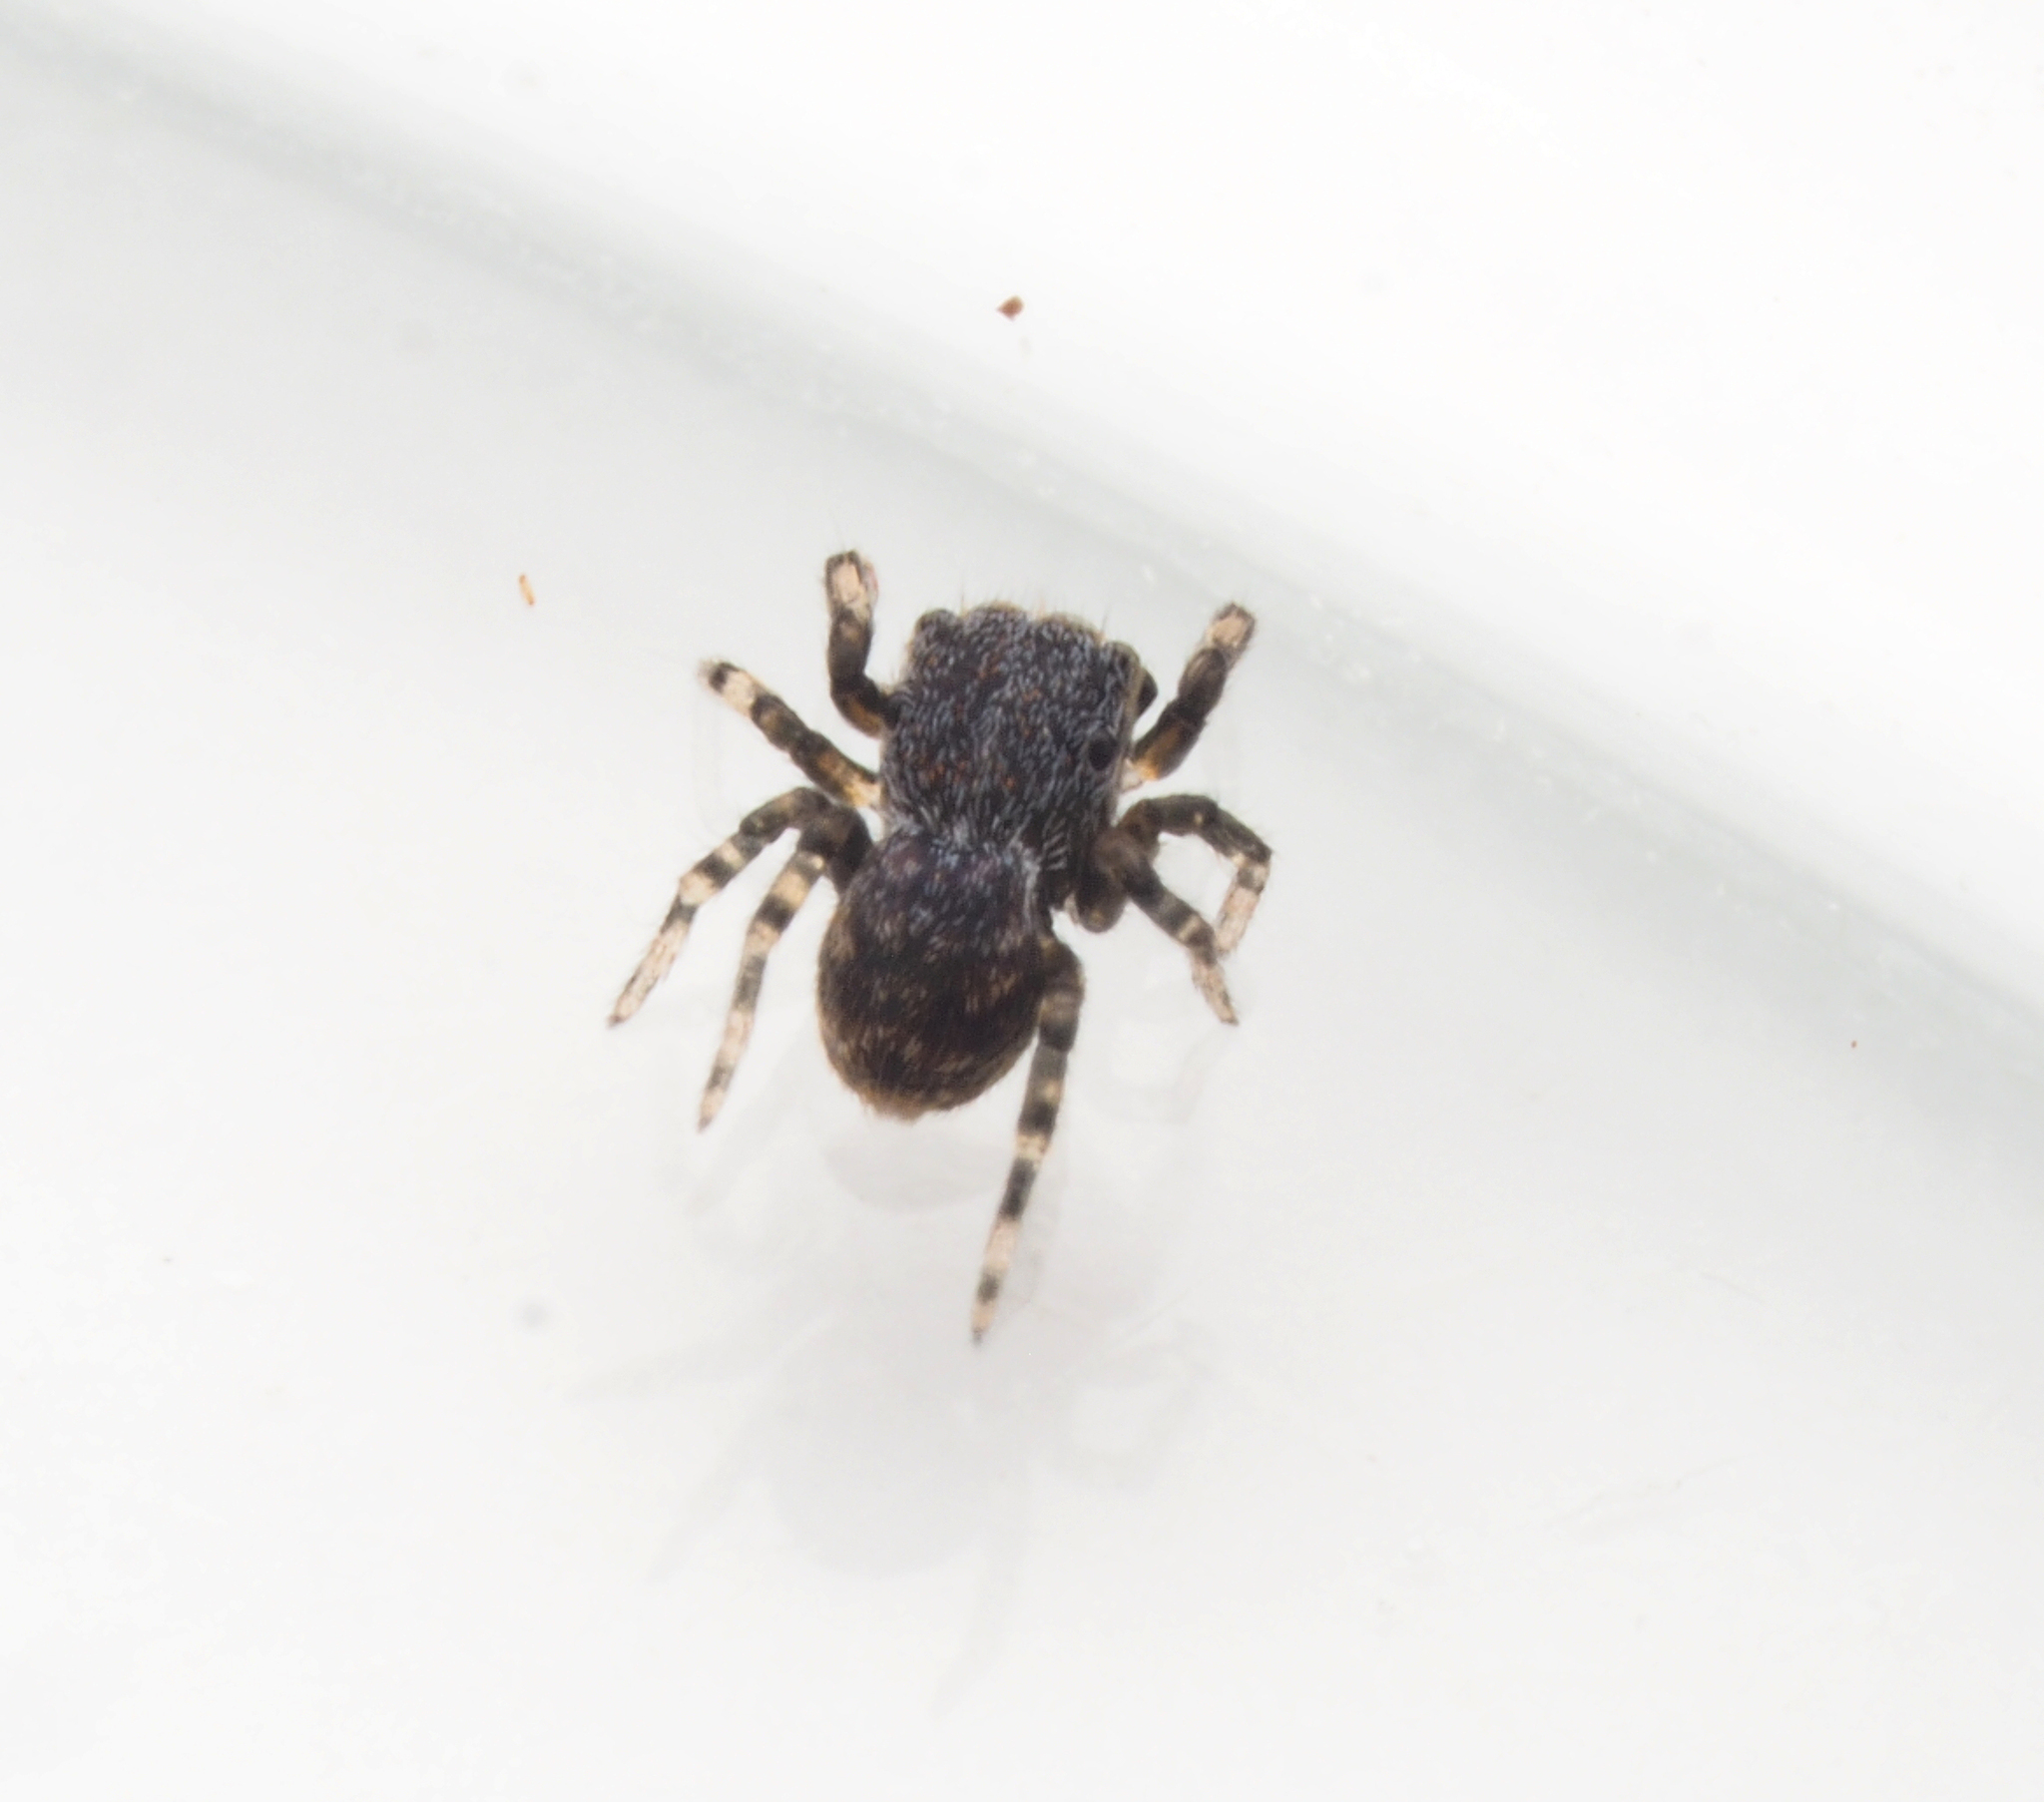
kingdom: Animalia
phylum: Arthropoda
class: Arachnida
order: Araneae
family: Salticidae
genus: Bianor
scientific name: Bianor
